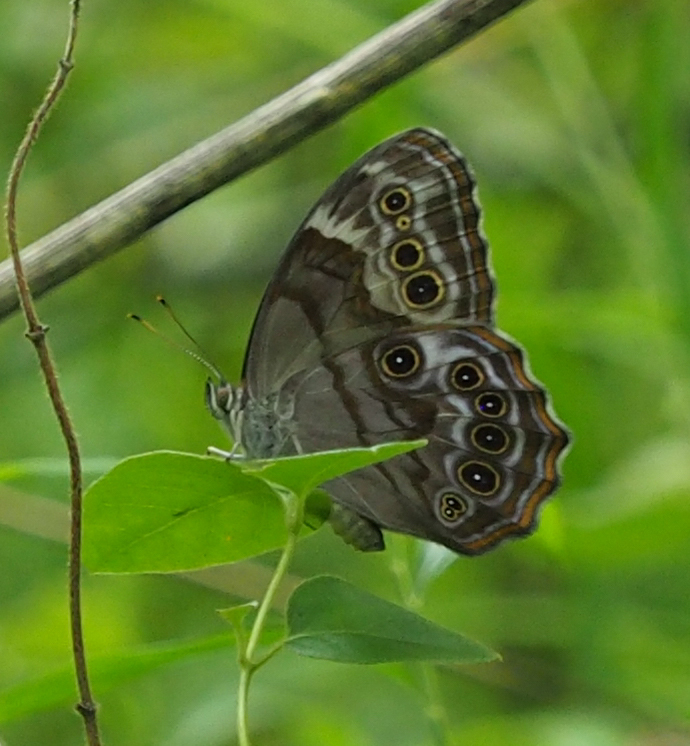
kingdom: Animalia
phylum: Arthropoda
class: Insecta
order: Lepidoptera
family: Nymphalidae
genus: Lethe
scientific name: Lethe anthedon
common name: Northern pearly-eye
